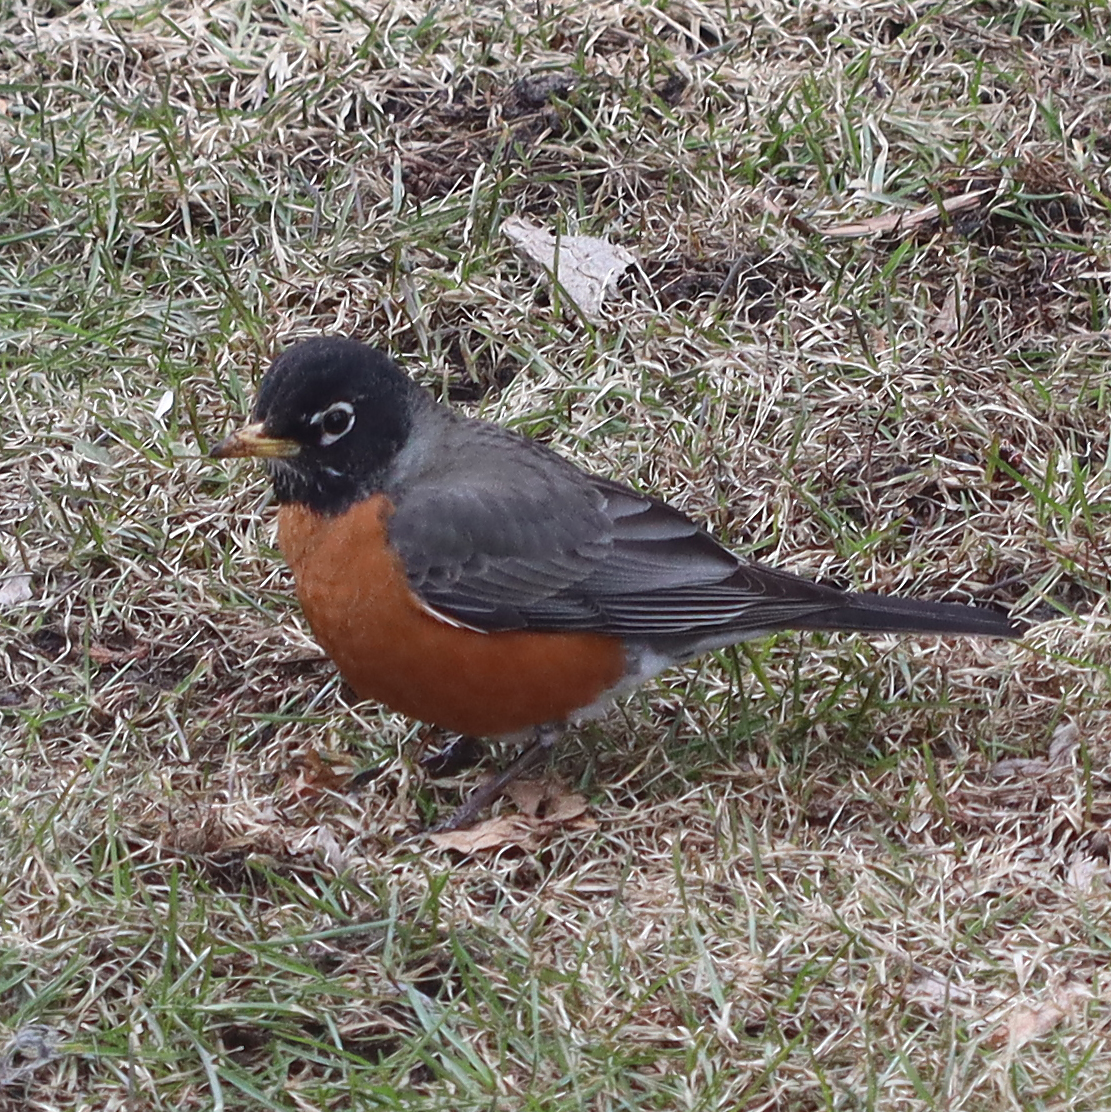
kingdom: Animalia
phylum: Chordata
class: Aves
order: Passeriformes
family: Turdidae
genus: Turdus
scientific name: Turdus migratorius
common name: American robin
